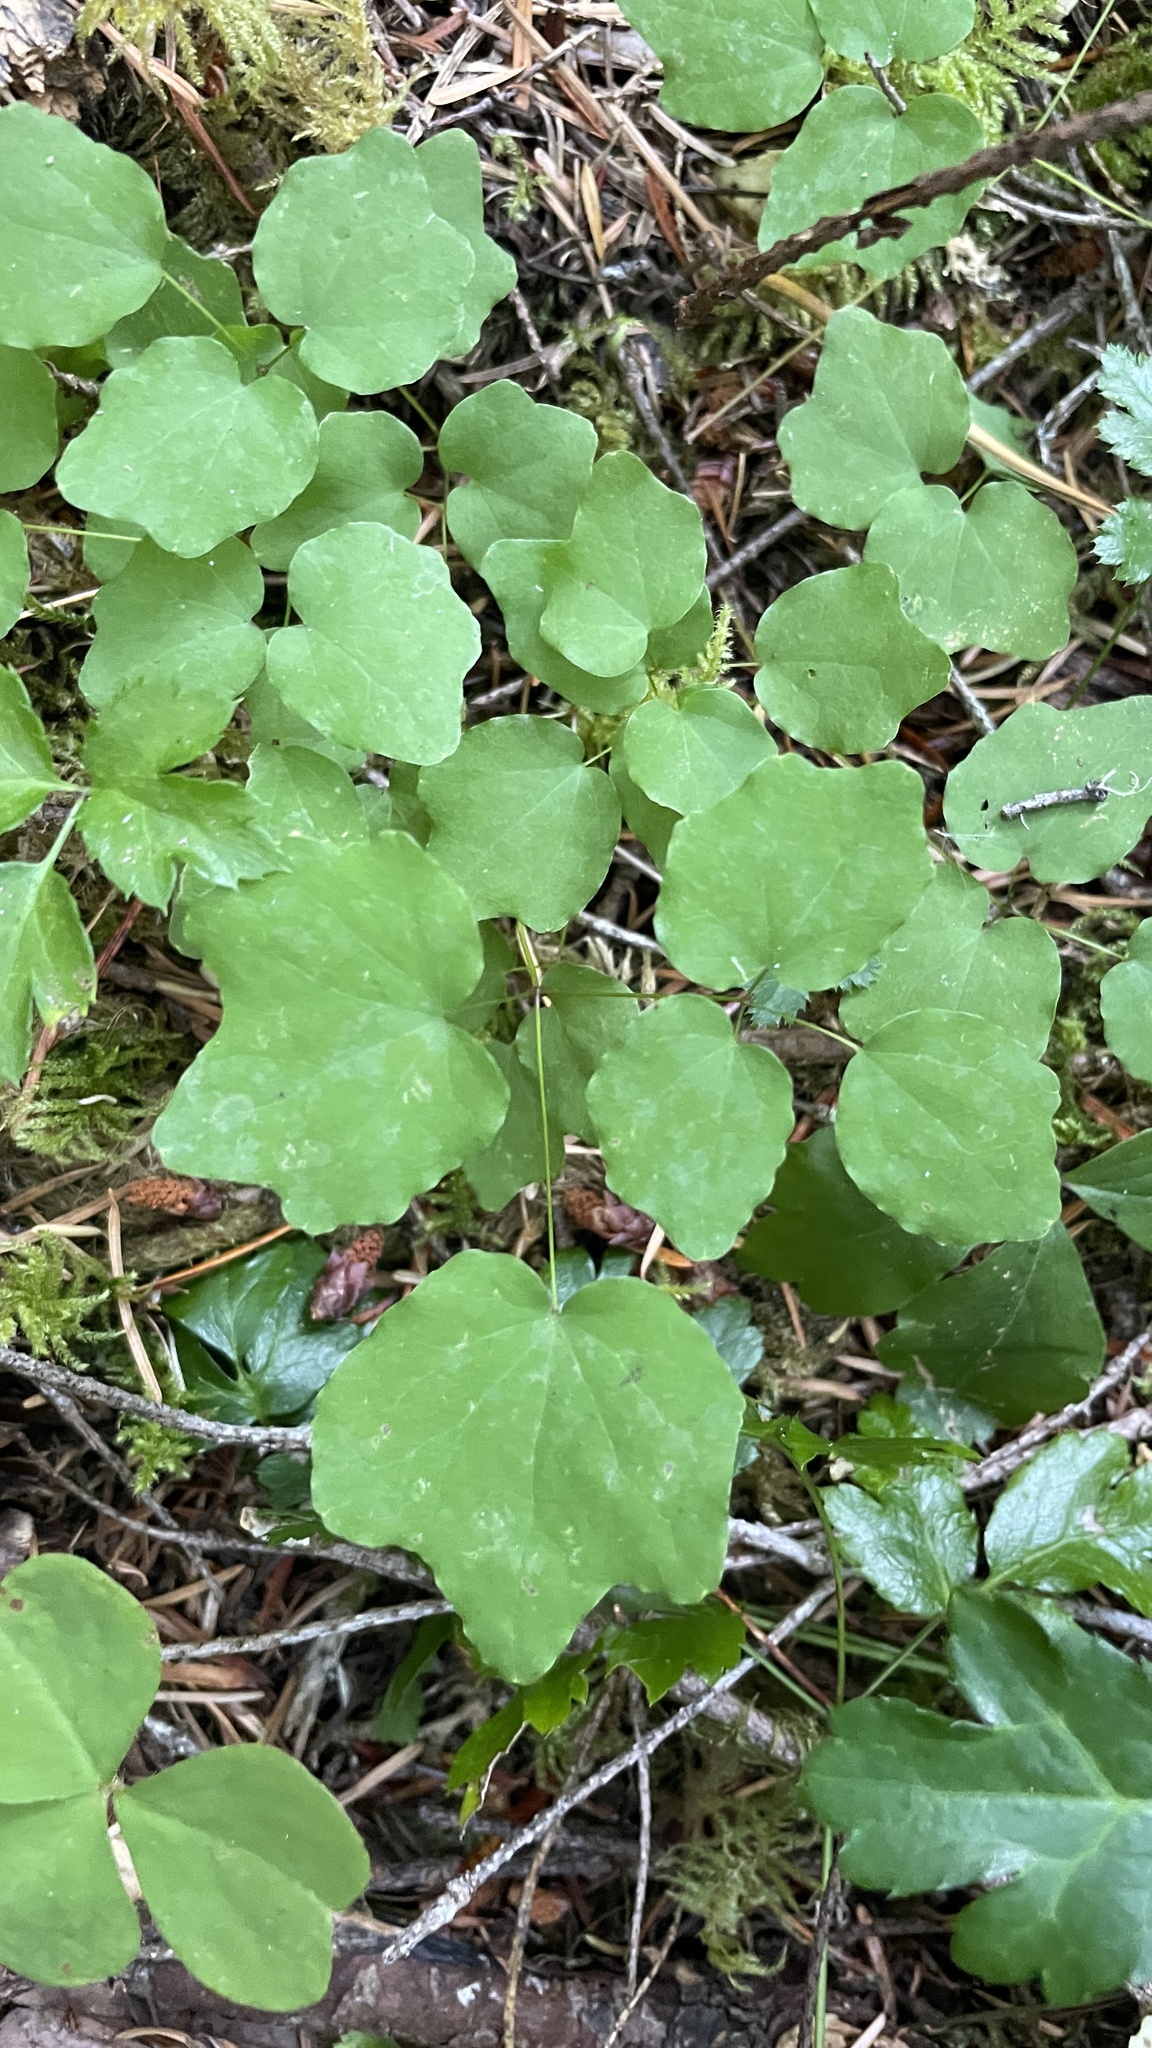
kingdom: Plantae
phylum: Tracheophyta
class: Magnoliopsida
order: Ranunculales
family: Berberidaceae
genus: Vancouveria
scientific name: Vancouveria hexandra
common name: Northern inside-out-flower
